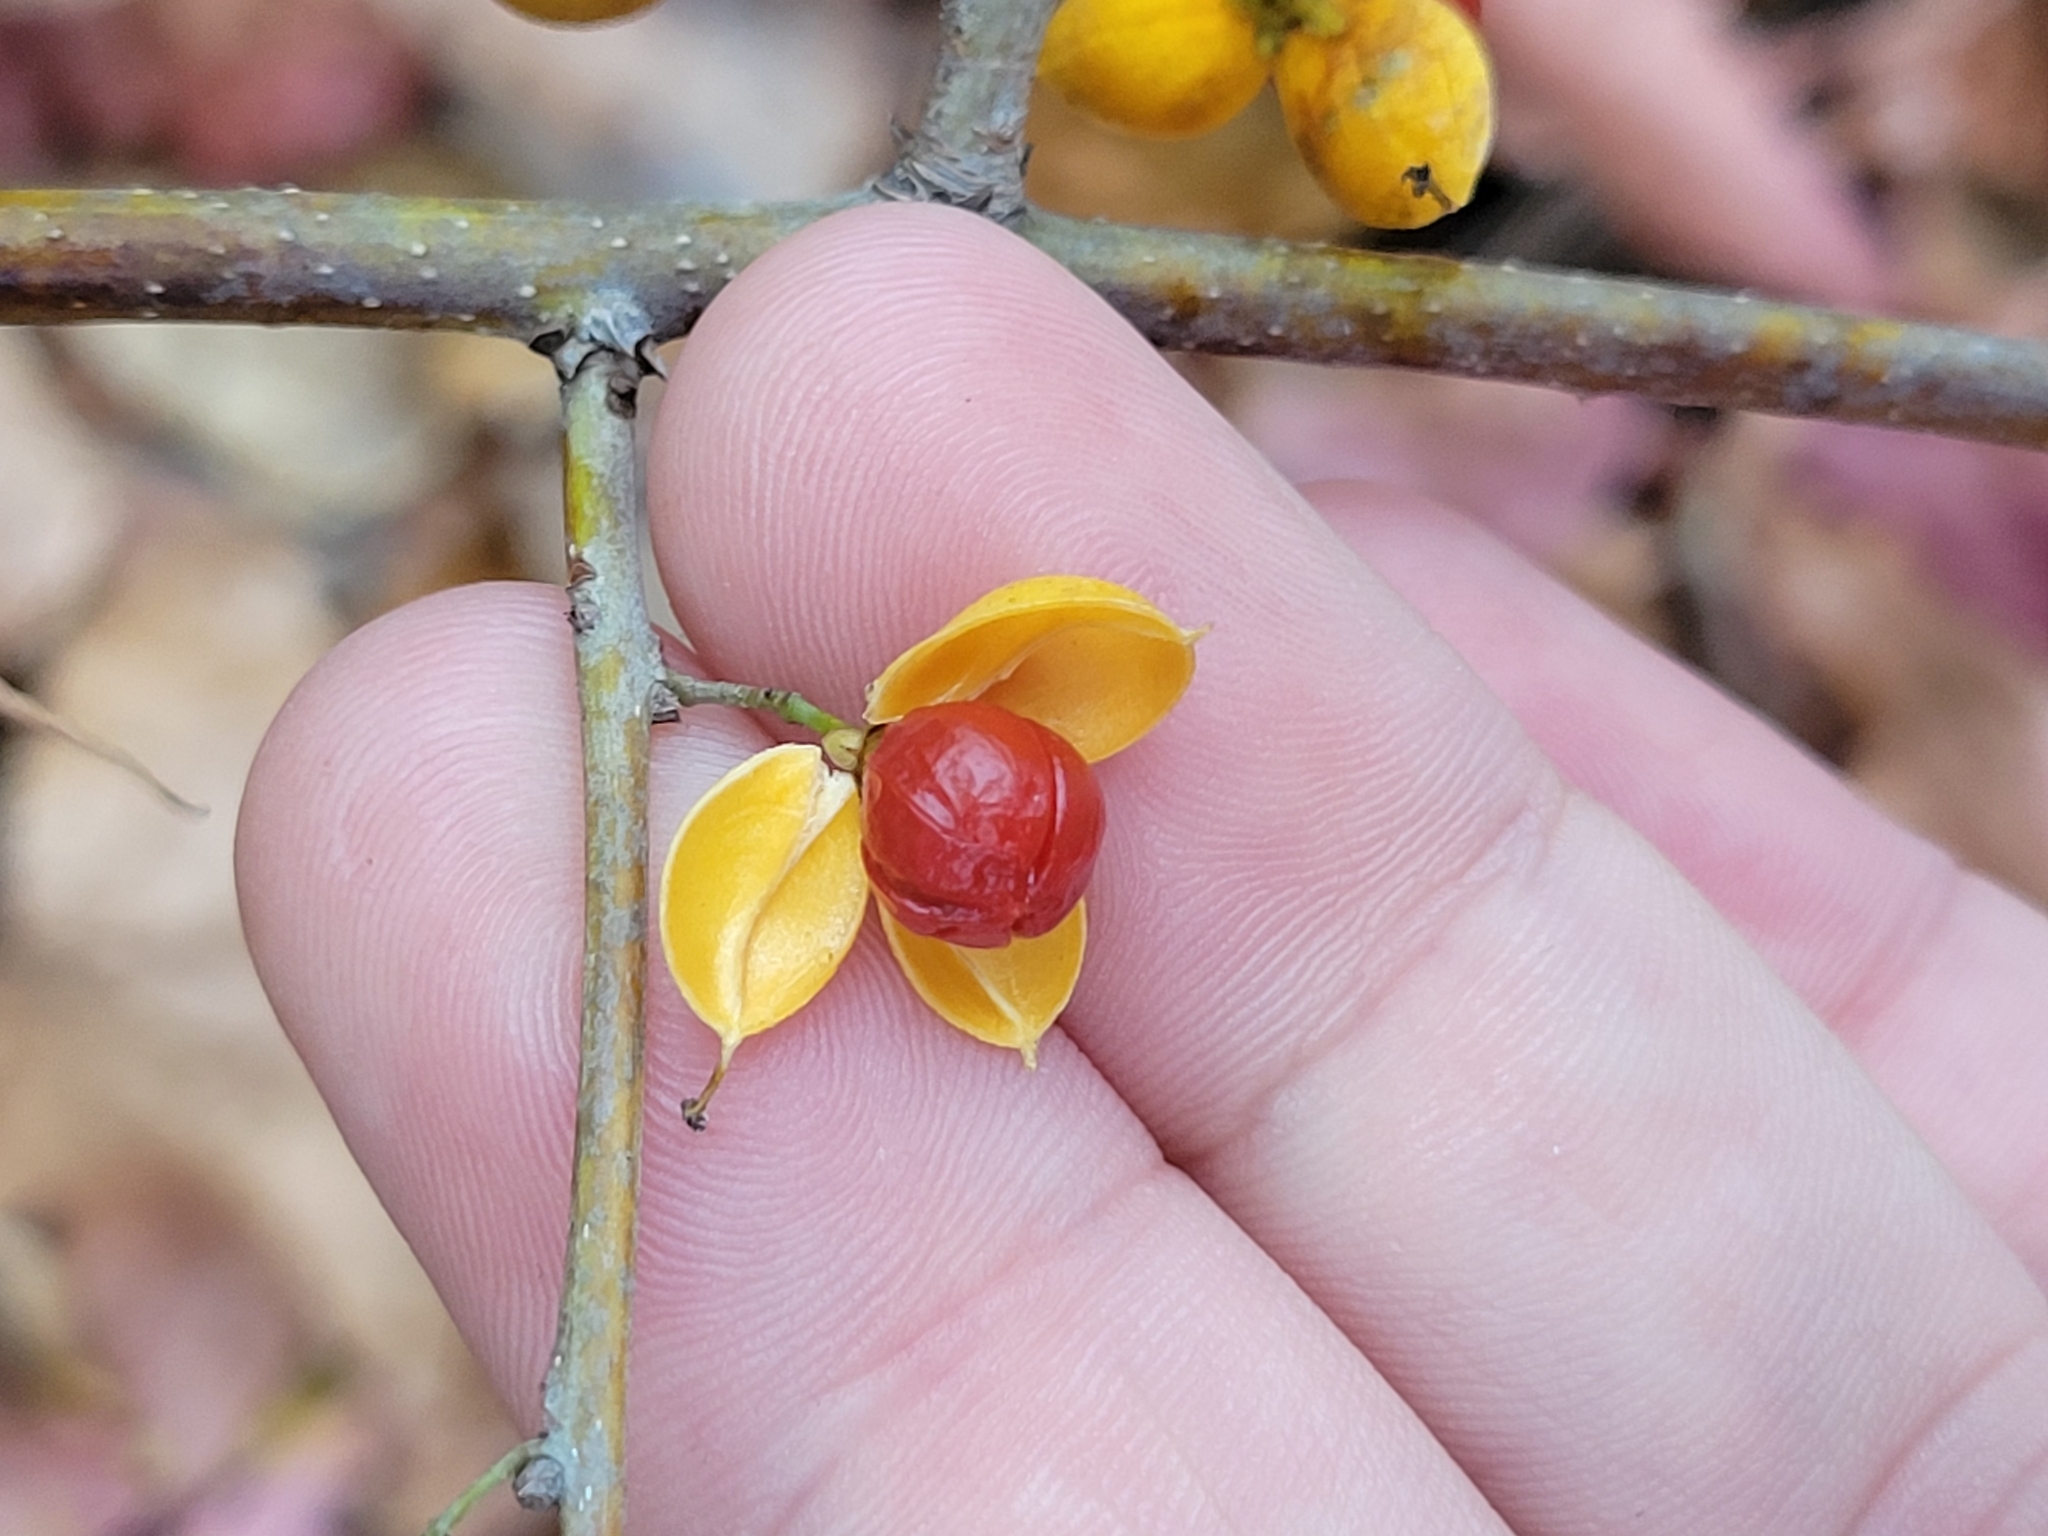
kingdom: Plantae
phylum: Tracheophyta
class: Magnoliopsida
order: Celastrales
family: Celastraceae
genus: Celastrus
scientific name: Celastrus orbiculatus
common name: Oriental bittersweet
